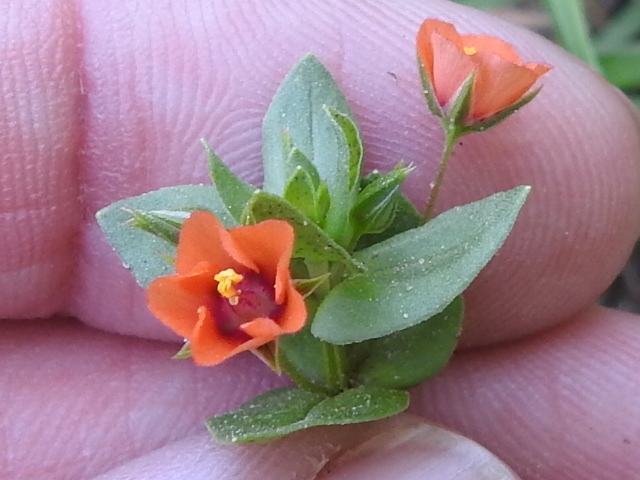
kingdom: Plantae
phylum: Tracheophyta
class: Magnoliopsida
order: Ericales
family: Primulaceae
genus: Lysimachia
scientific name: Lysimachia arvensis
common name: Scarlet pimpernel
